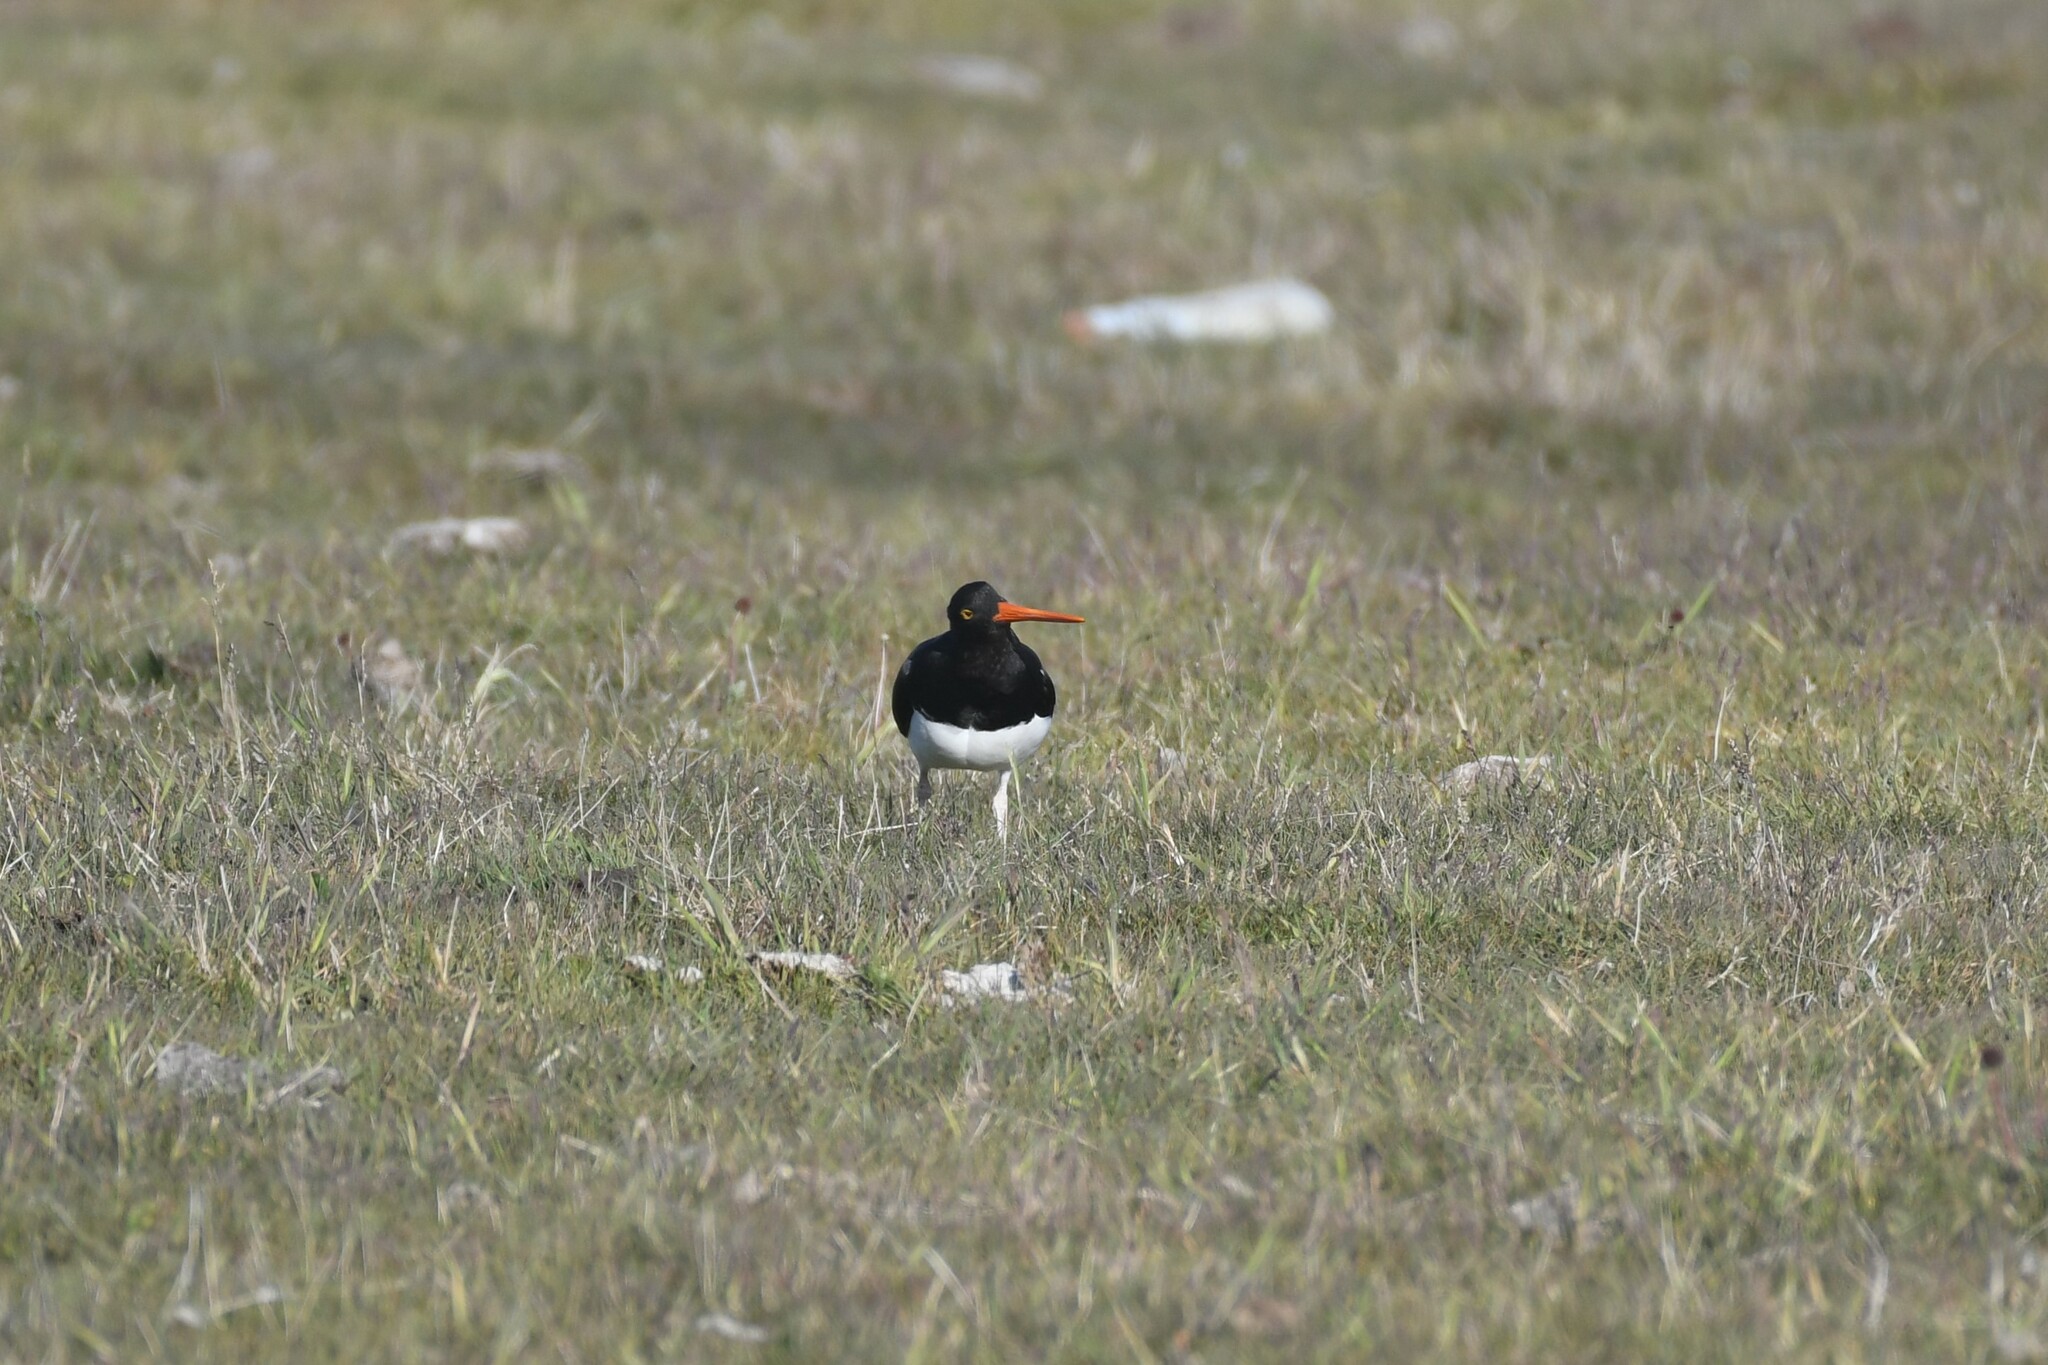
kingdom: Animalia
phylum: Chordata
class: Aves
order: Charadriiformes
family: Haematopodidae
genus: Haematopus
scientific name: Haematopus leucopodus
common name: Magellanic oystercatcher
